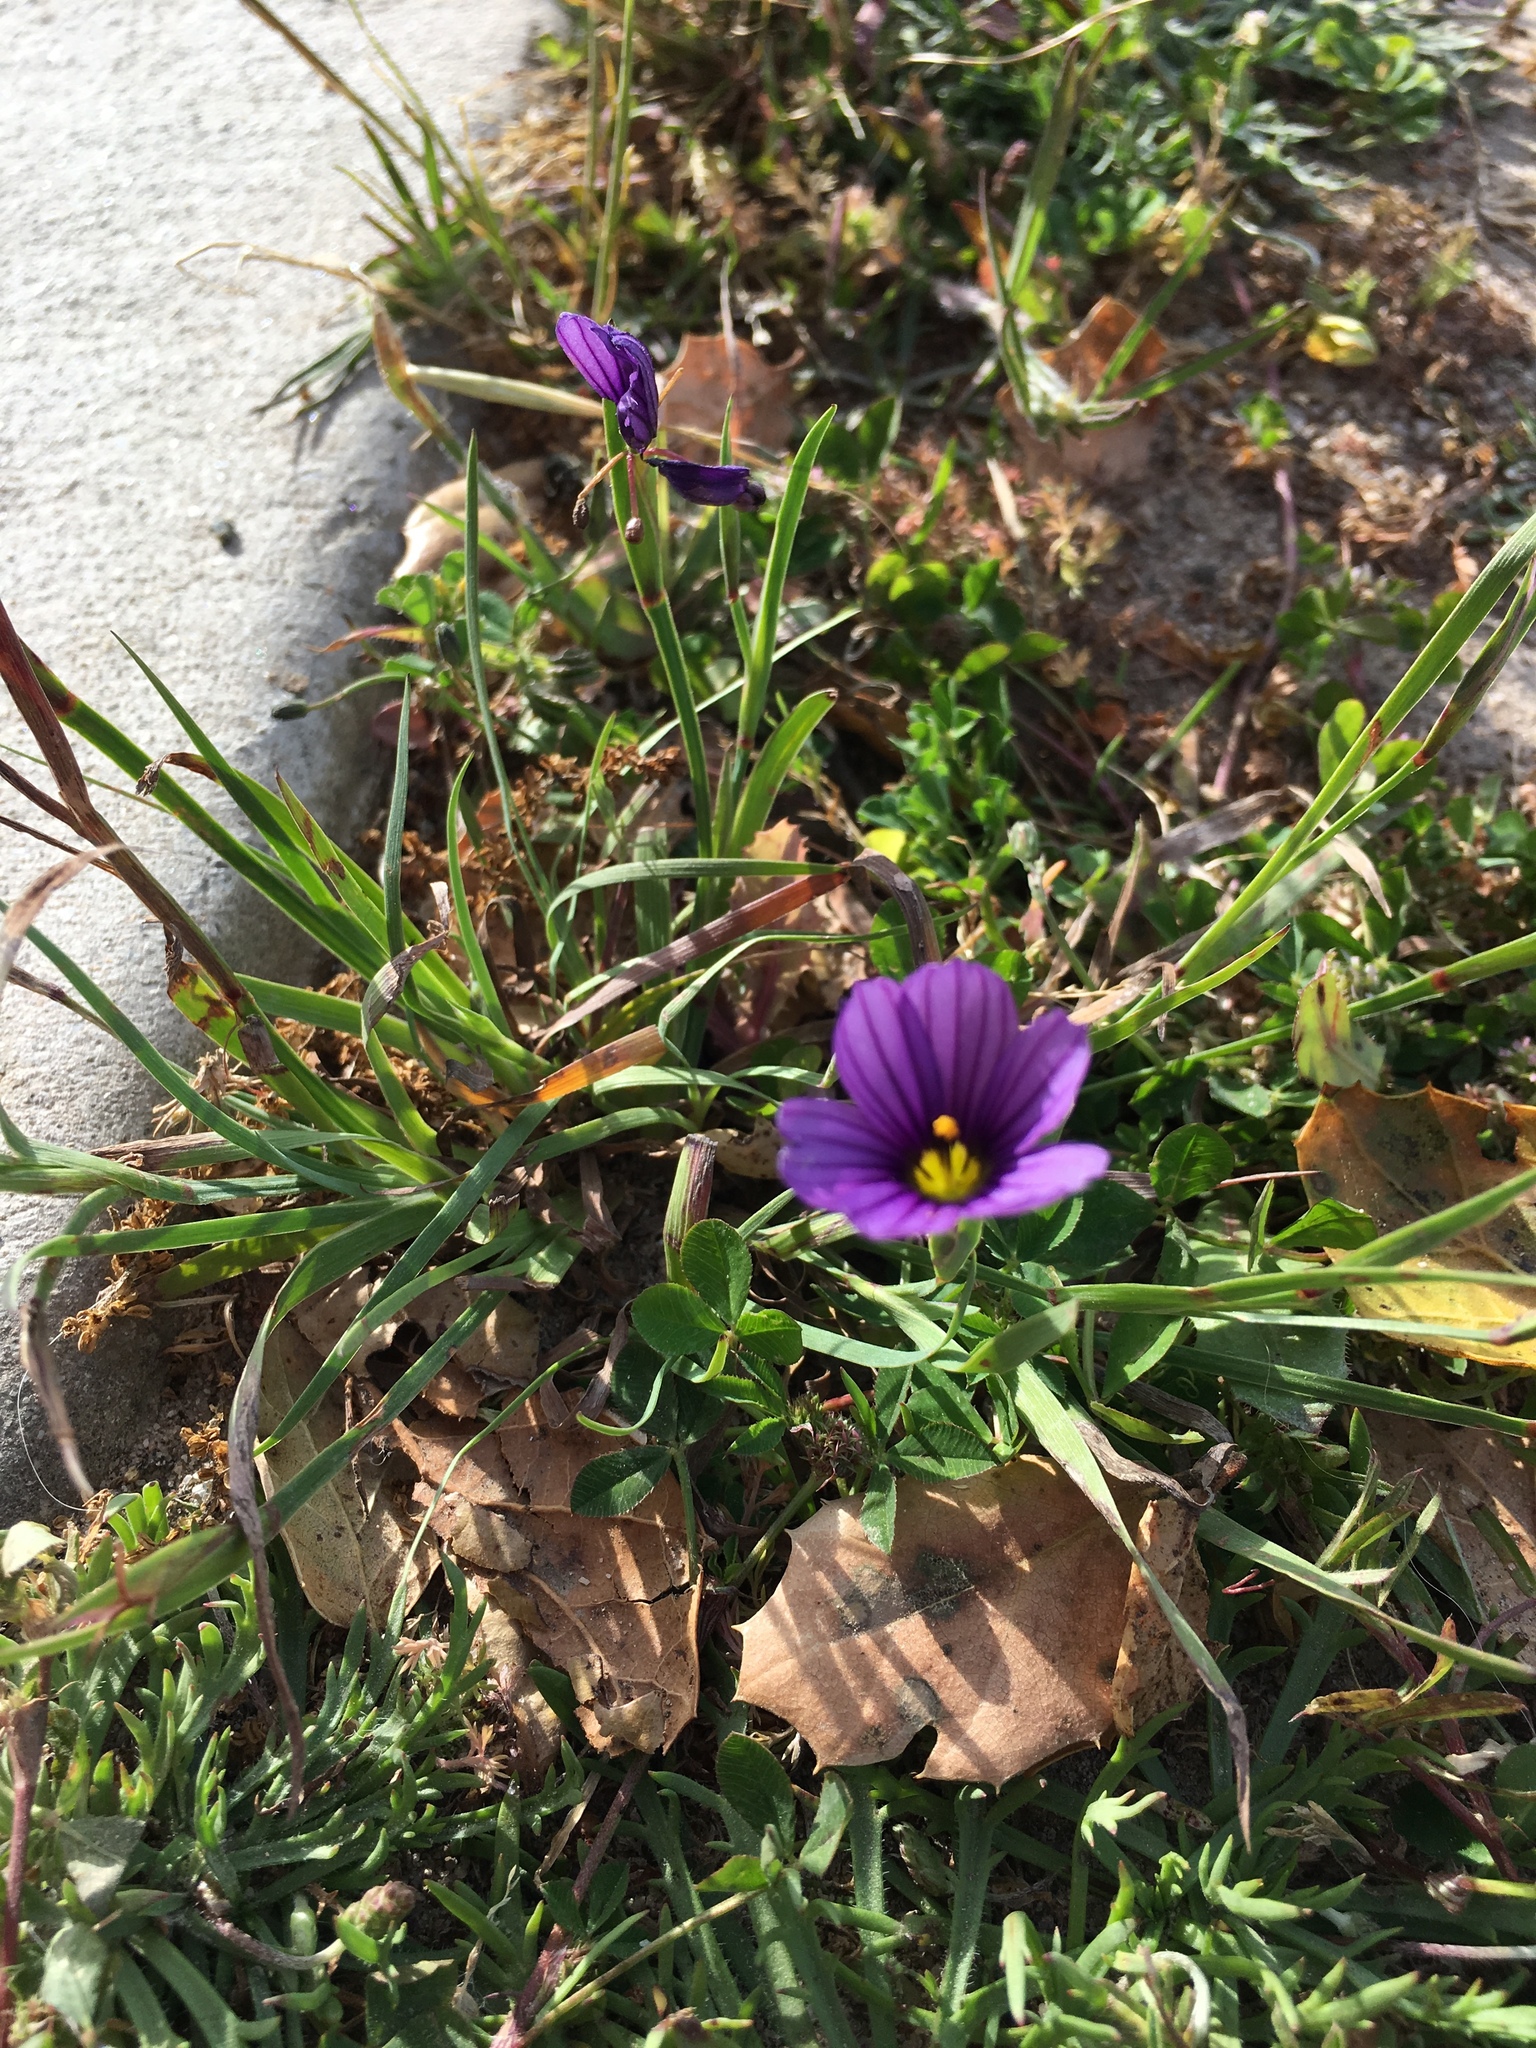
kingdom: Plantae
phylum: Tracheophyta
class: Liliopsida
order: Asparagales
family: Iridaceae
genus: Sisyrinchium
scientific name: Sisyrinchium bellum
